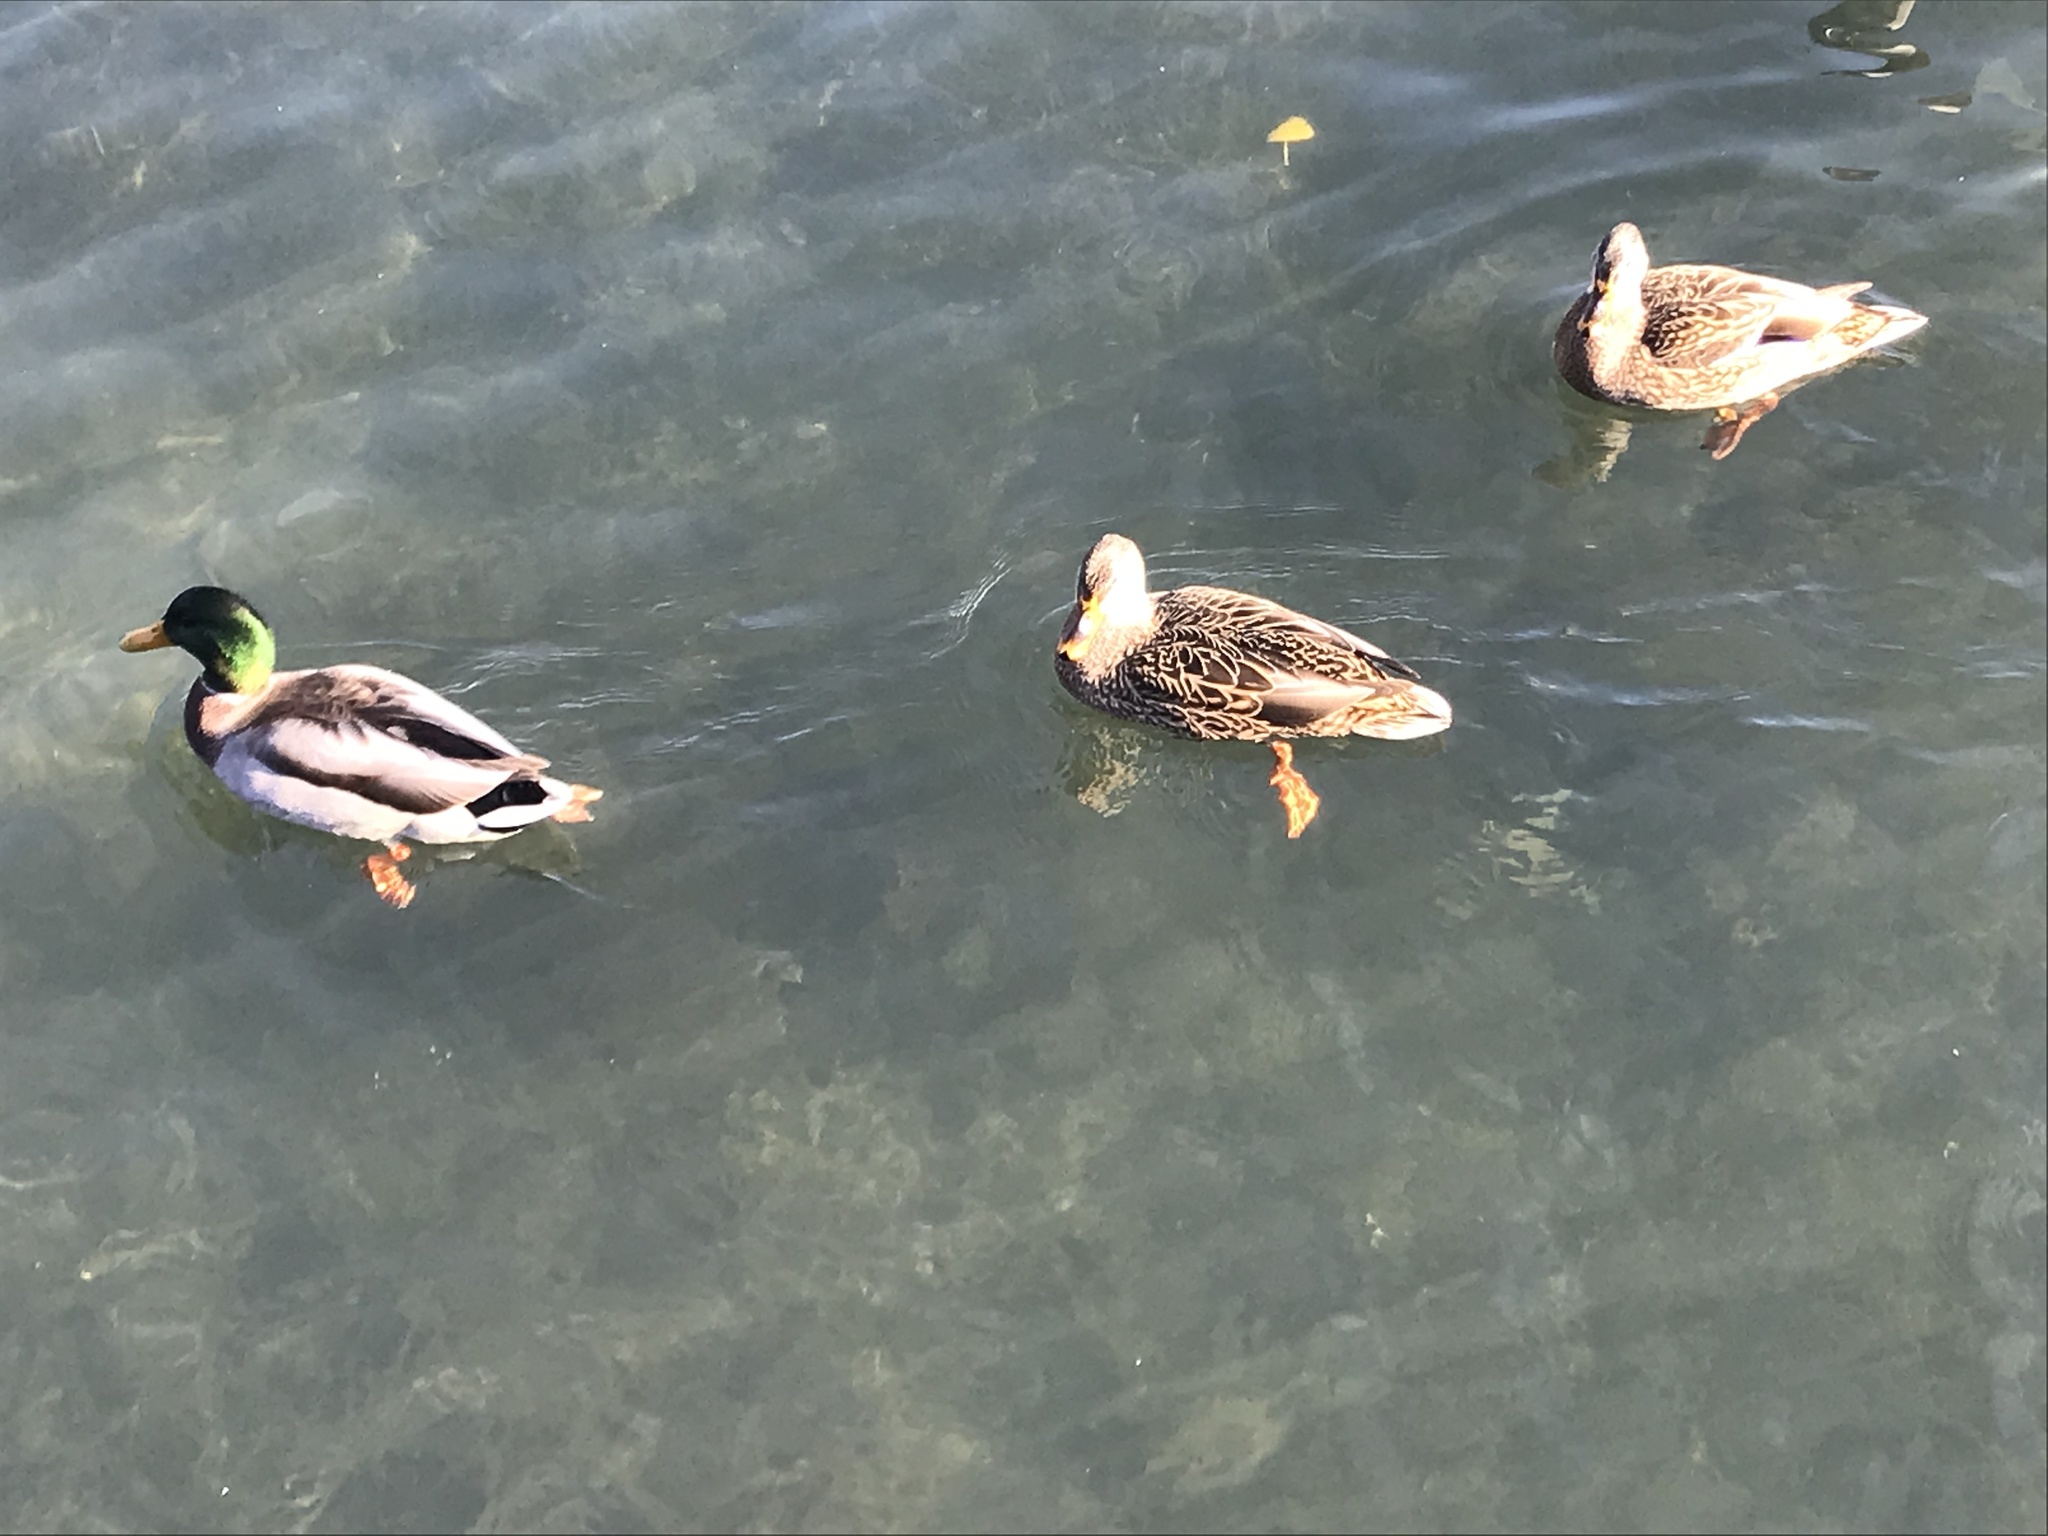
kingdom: Animalia
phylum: Chordata
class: Aves
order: Anseriformes
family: Anatidae
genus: Anas
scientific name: Anas platyrhynchos
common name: Mallard
